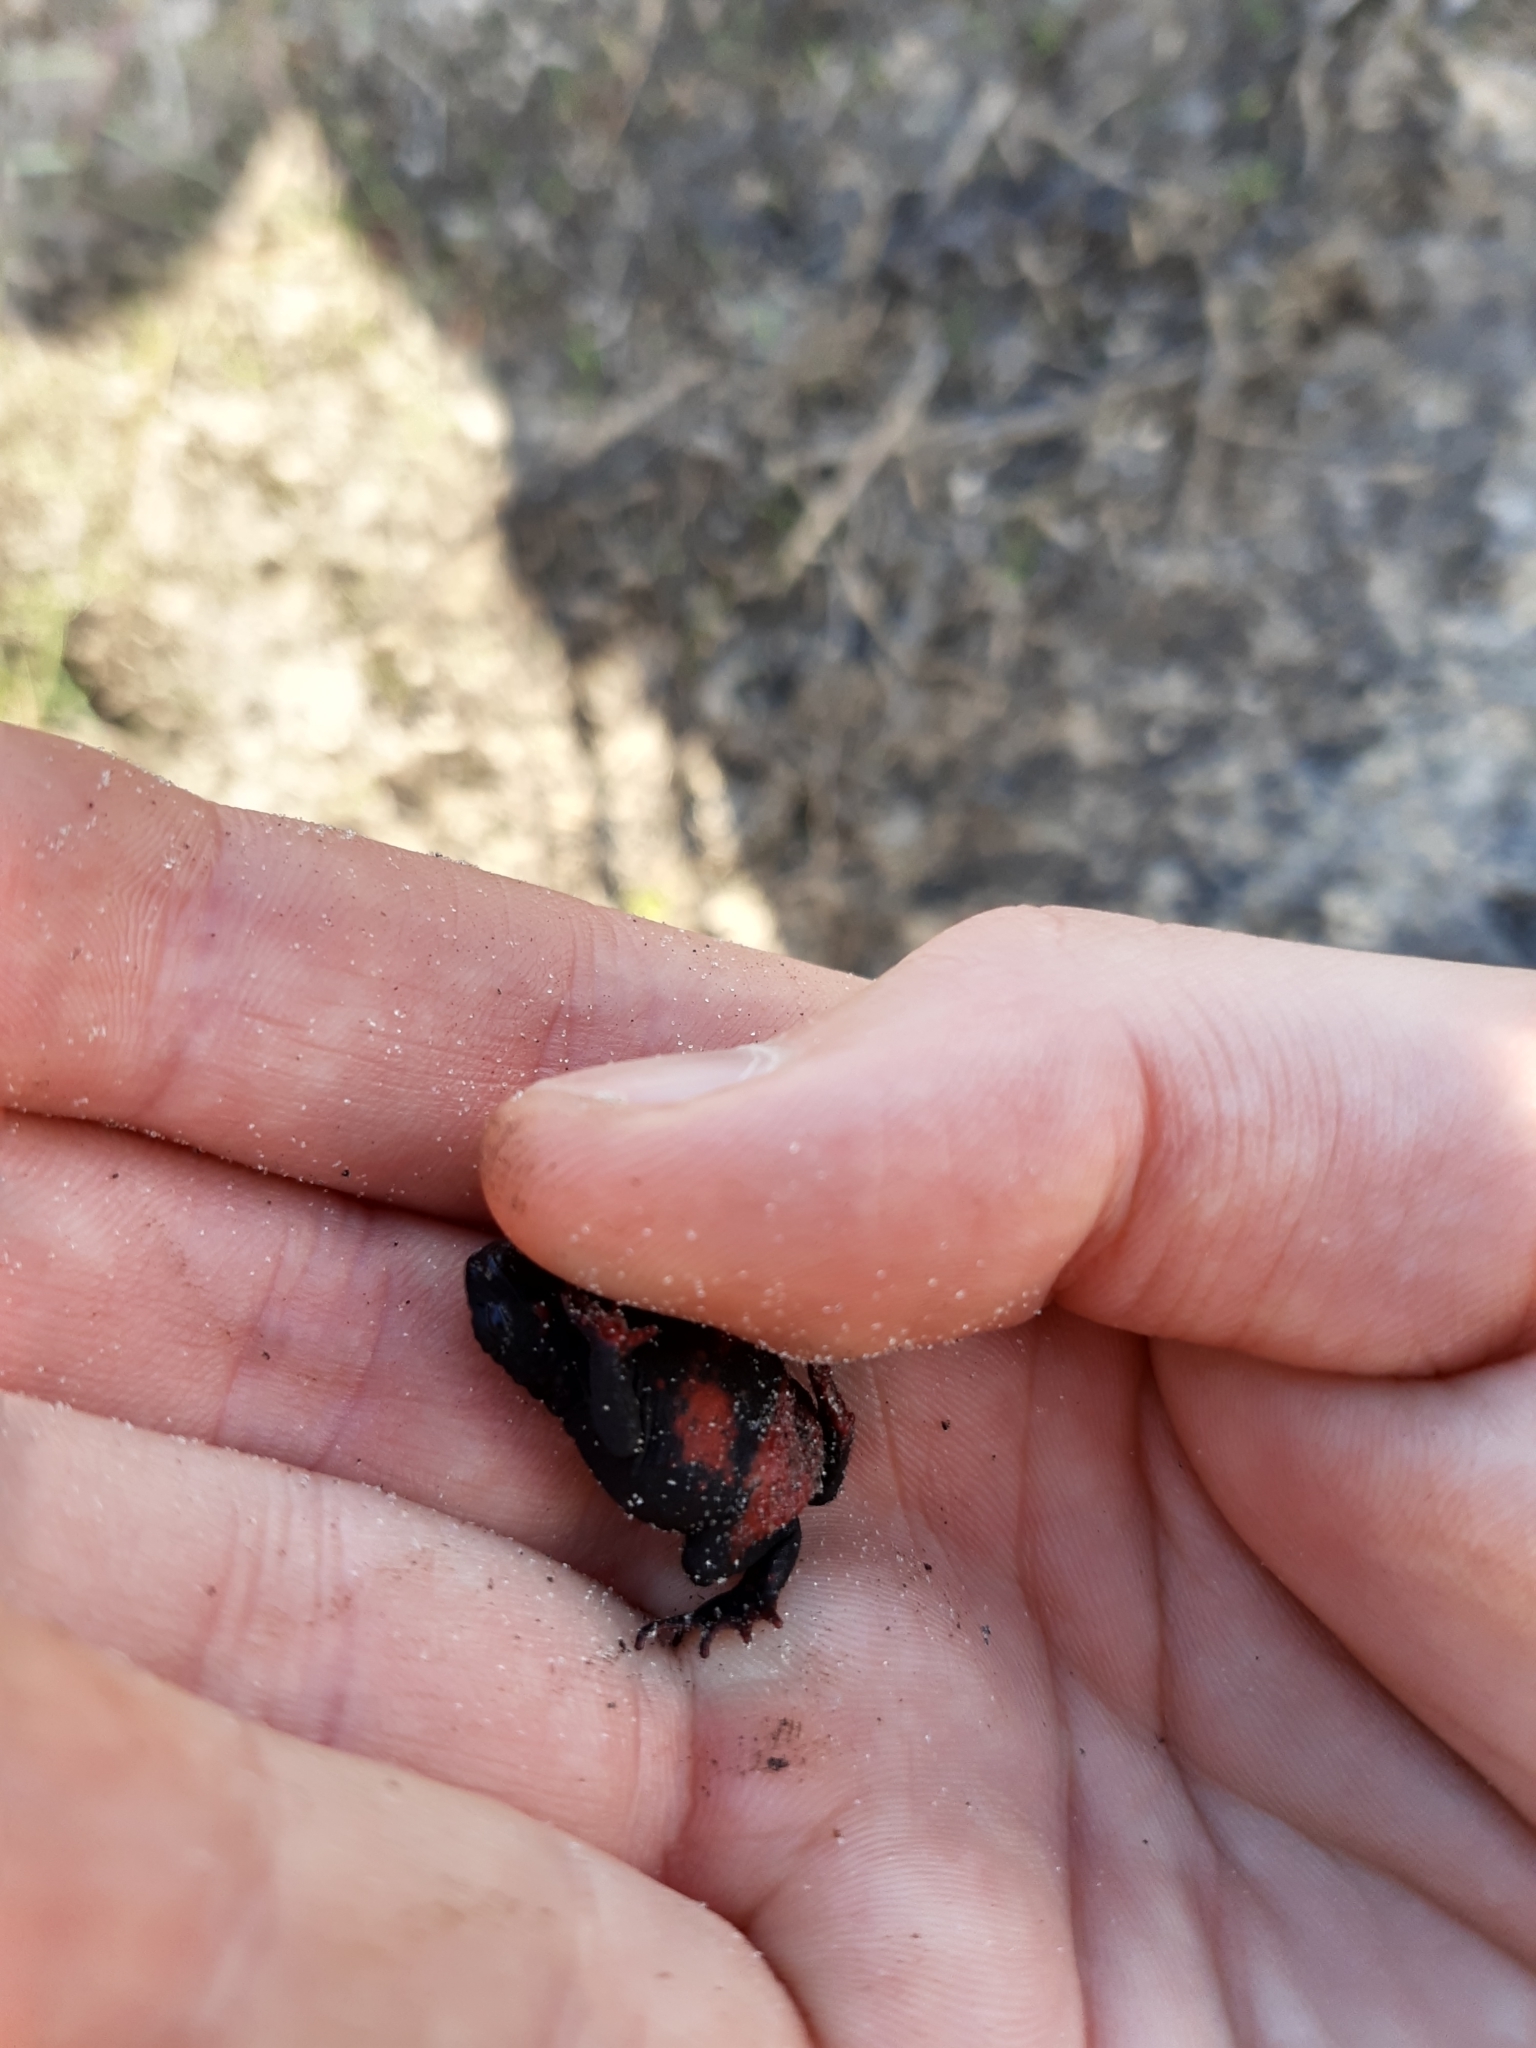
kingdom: Animalia
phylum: Chordata
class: Amphibia
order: Anura
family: Bufonidae
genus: Melanophryniscus
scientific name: Melanophryniscus dorsalis
